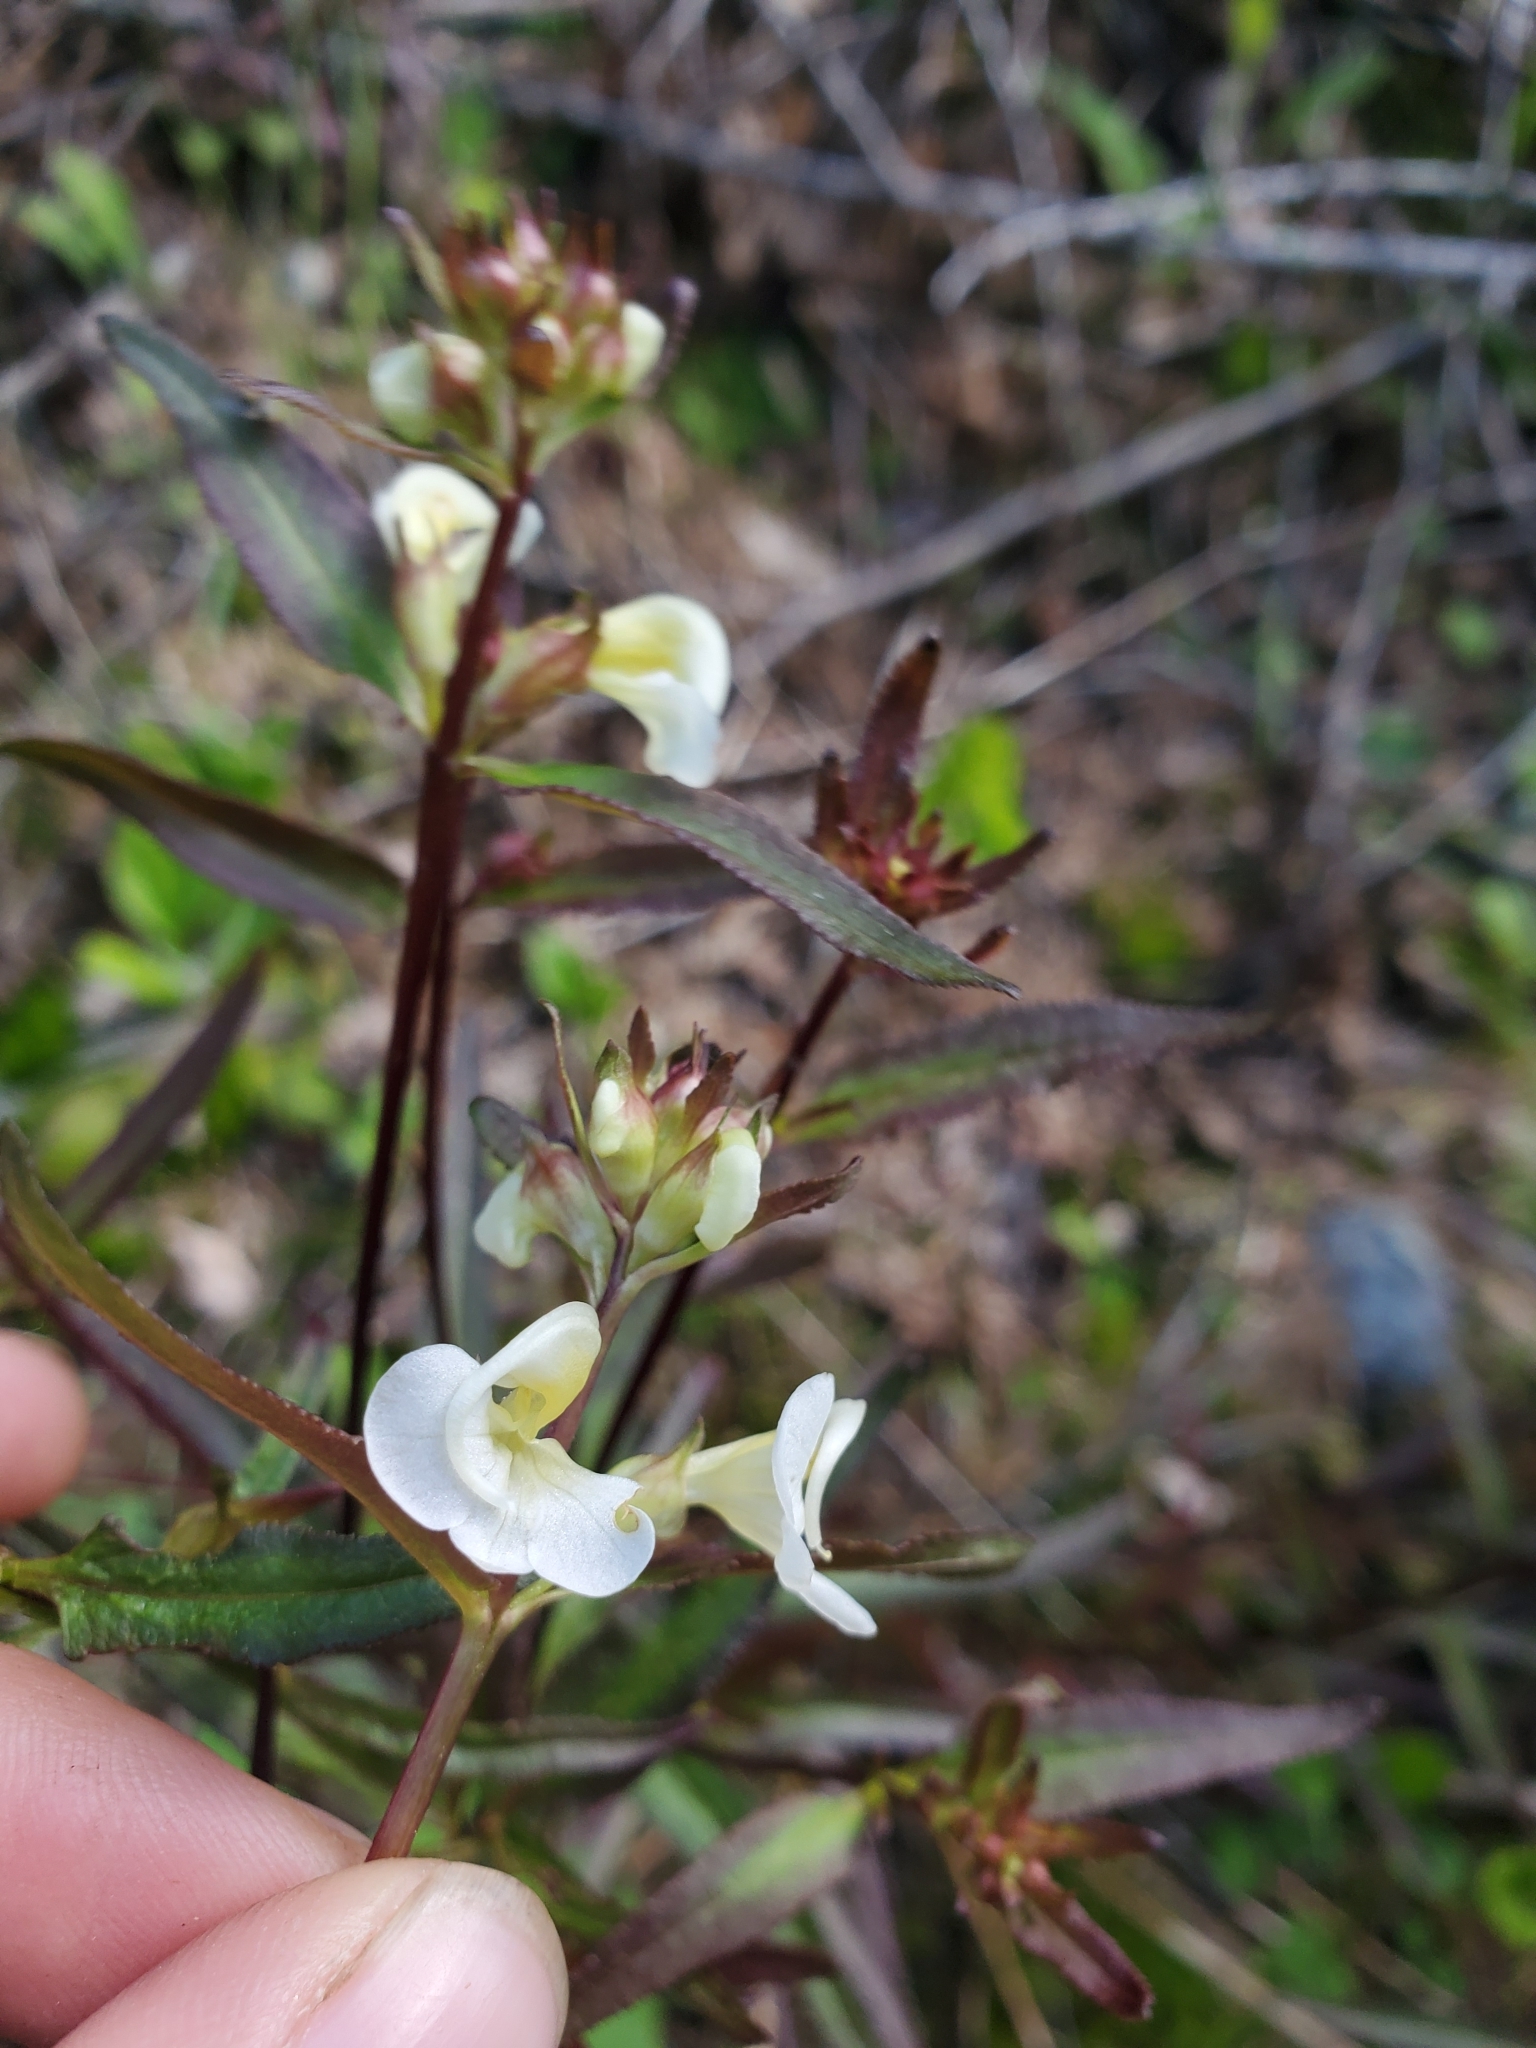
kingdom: Plantae
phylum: Tracheophyta
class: Magnoliopsida
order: Lamiales
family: Orobanchaceae
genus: Pedicularis
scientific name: Pedicularis racemosa
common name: Leafy lousewort
